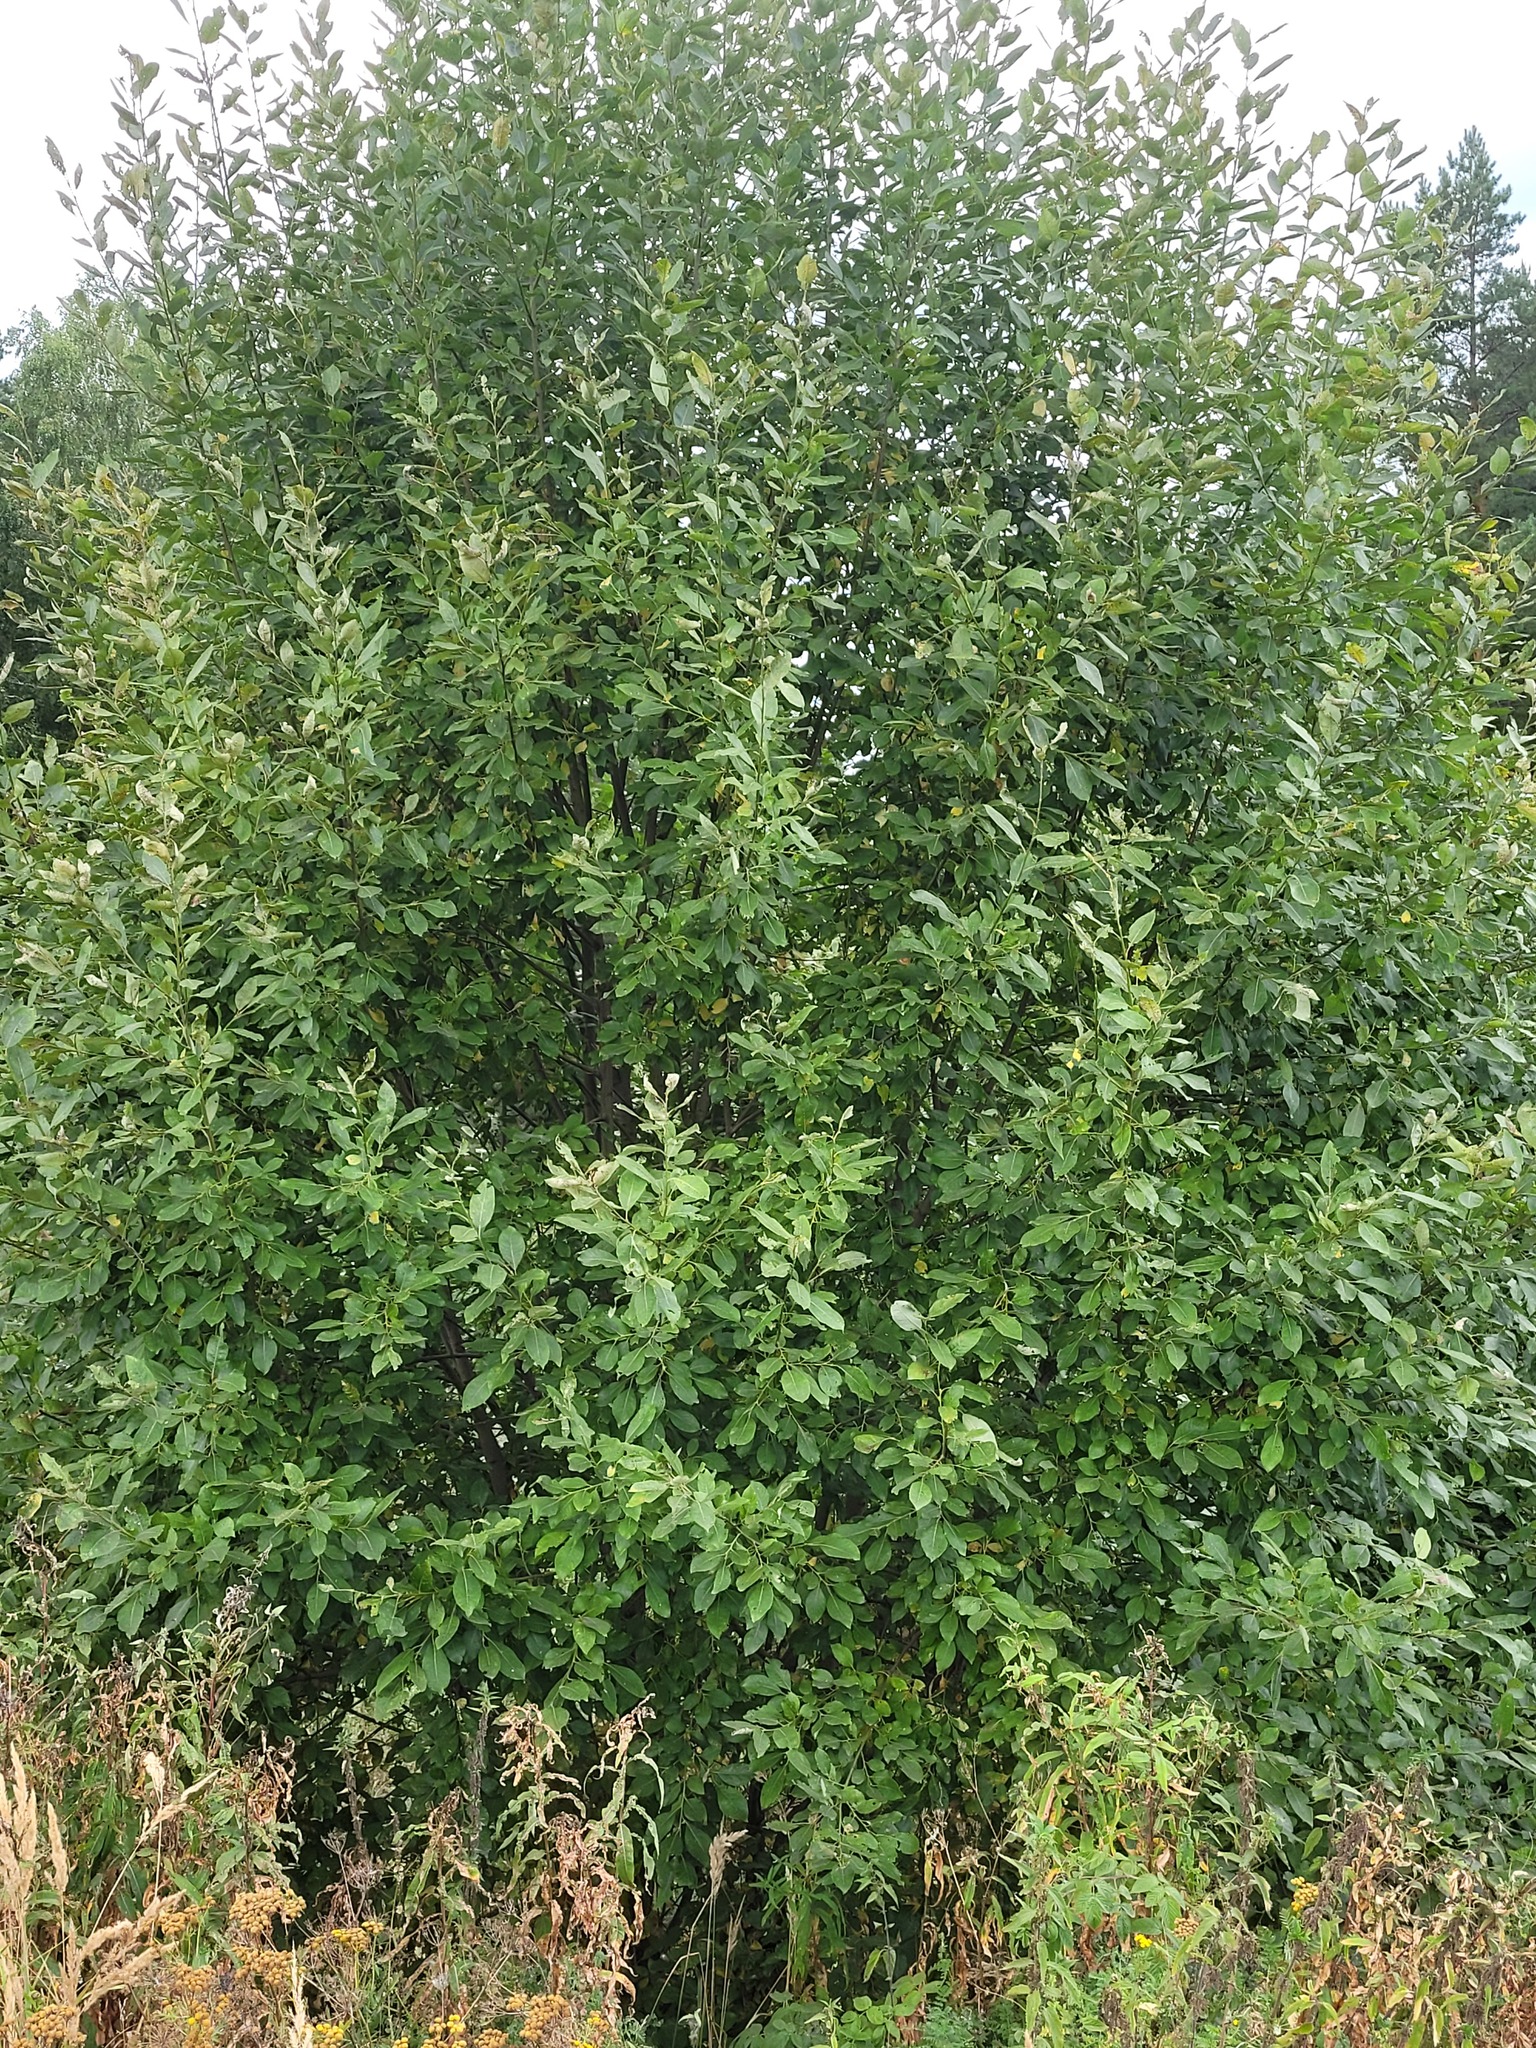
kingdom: Plantae
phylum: Tracheophyta
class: Magnoliopsida
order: Malpighiales
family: Salicaceae
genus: Salix
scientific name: Salix caprea
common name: Goat willow
